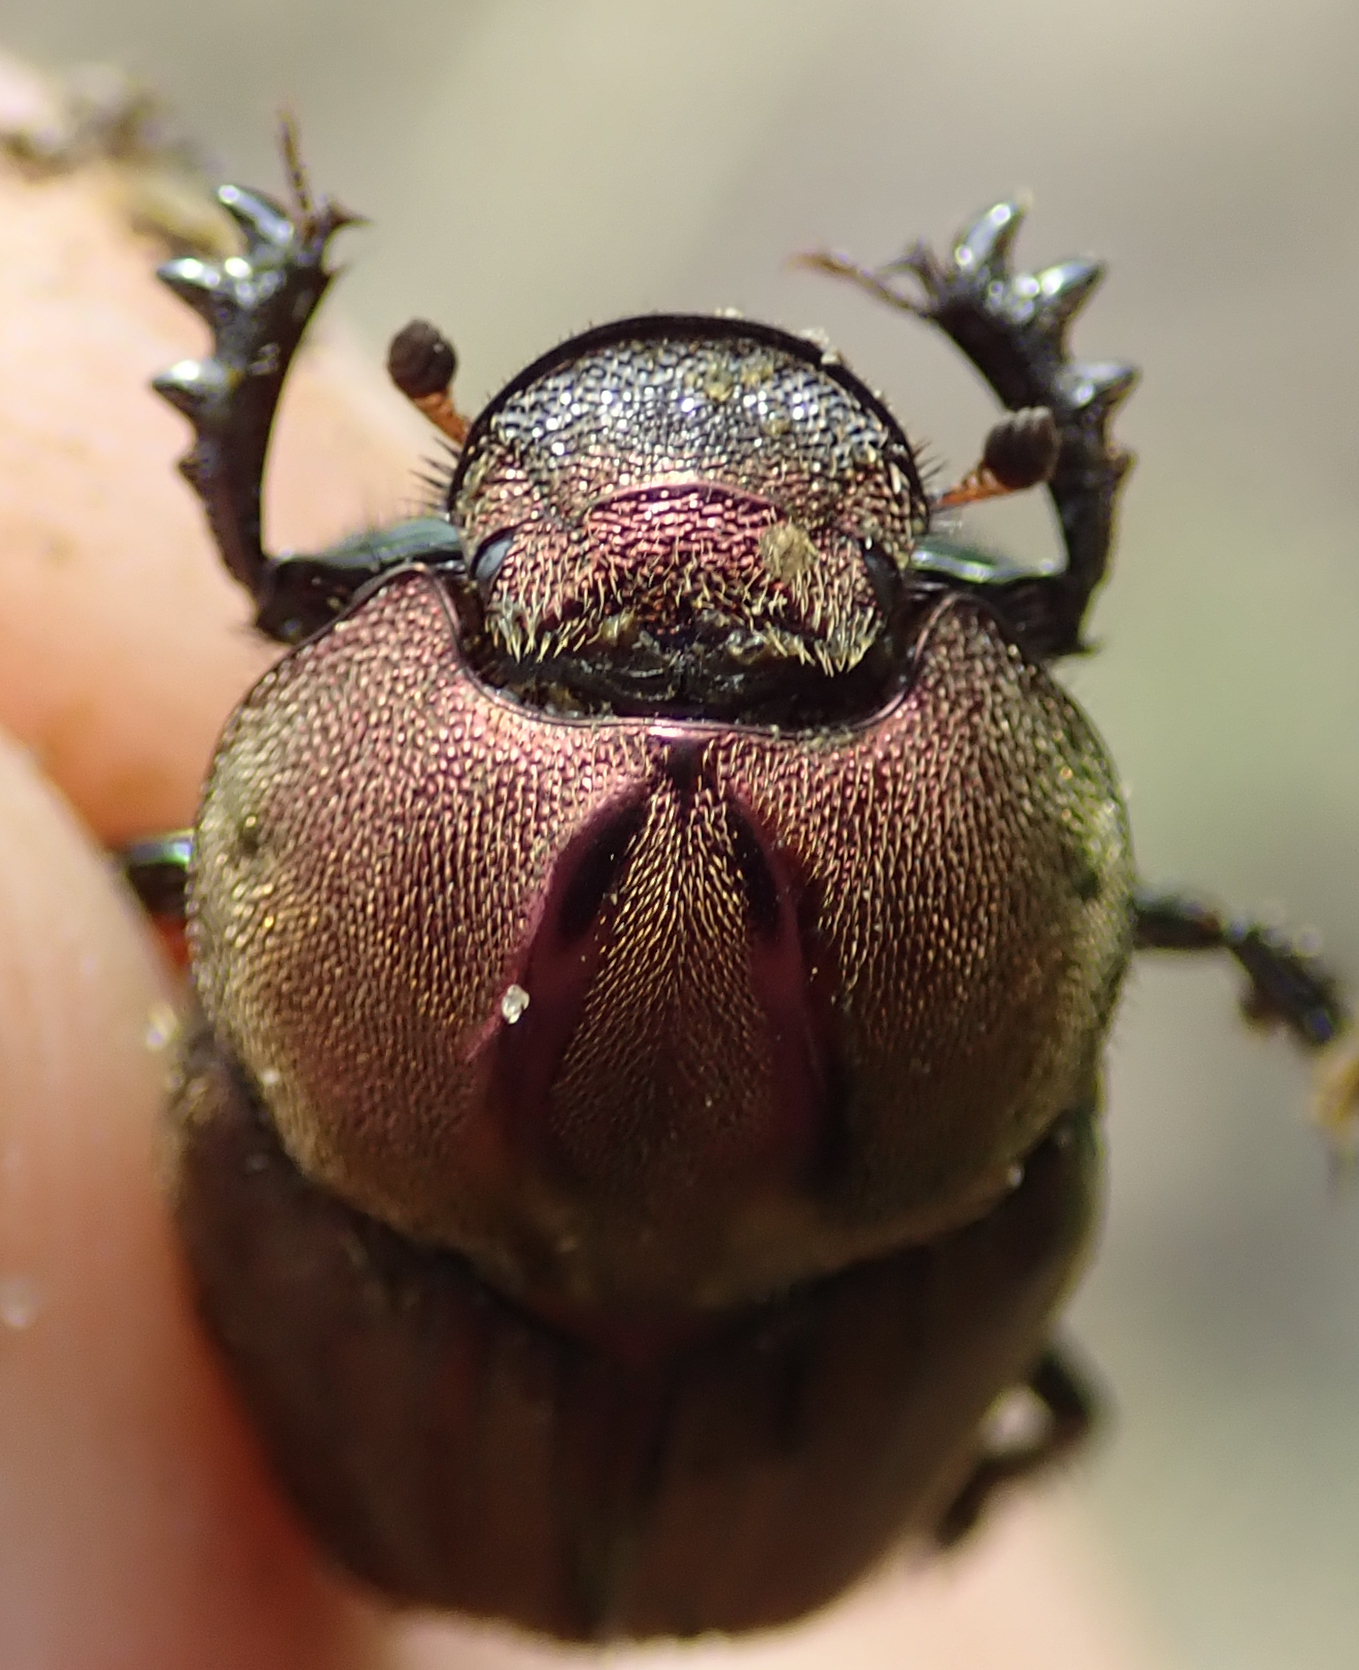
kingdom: Animalia
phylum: Arthropoda
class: Insecta
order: Coleoptera
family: Scarabaeidae
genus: Proagoderus
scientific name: Proagoderus bicallosus
